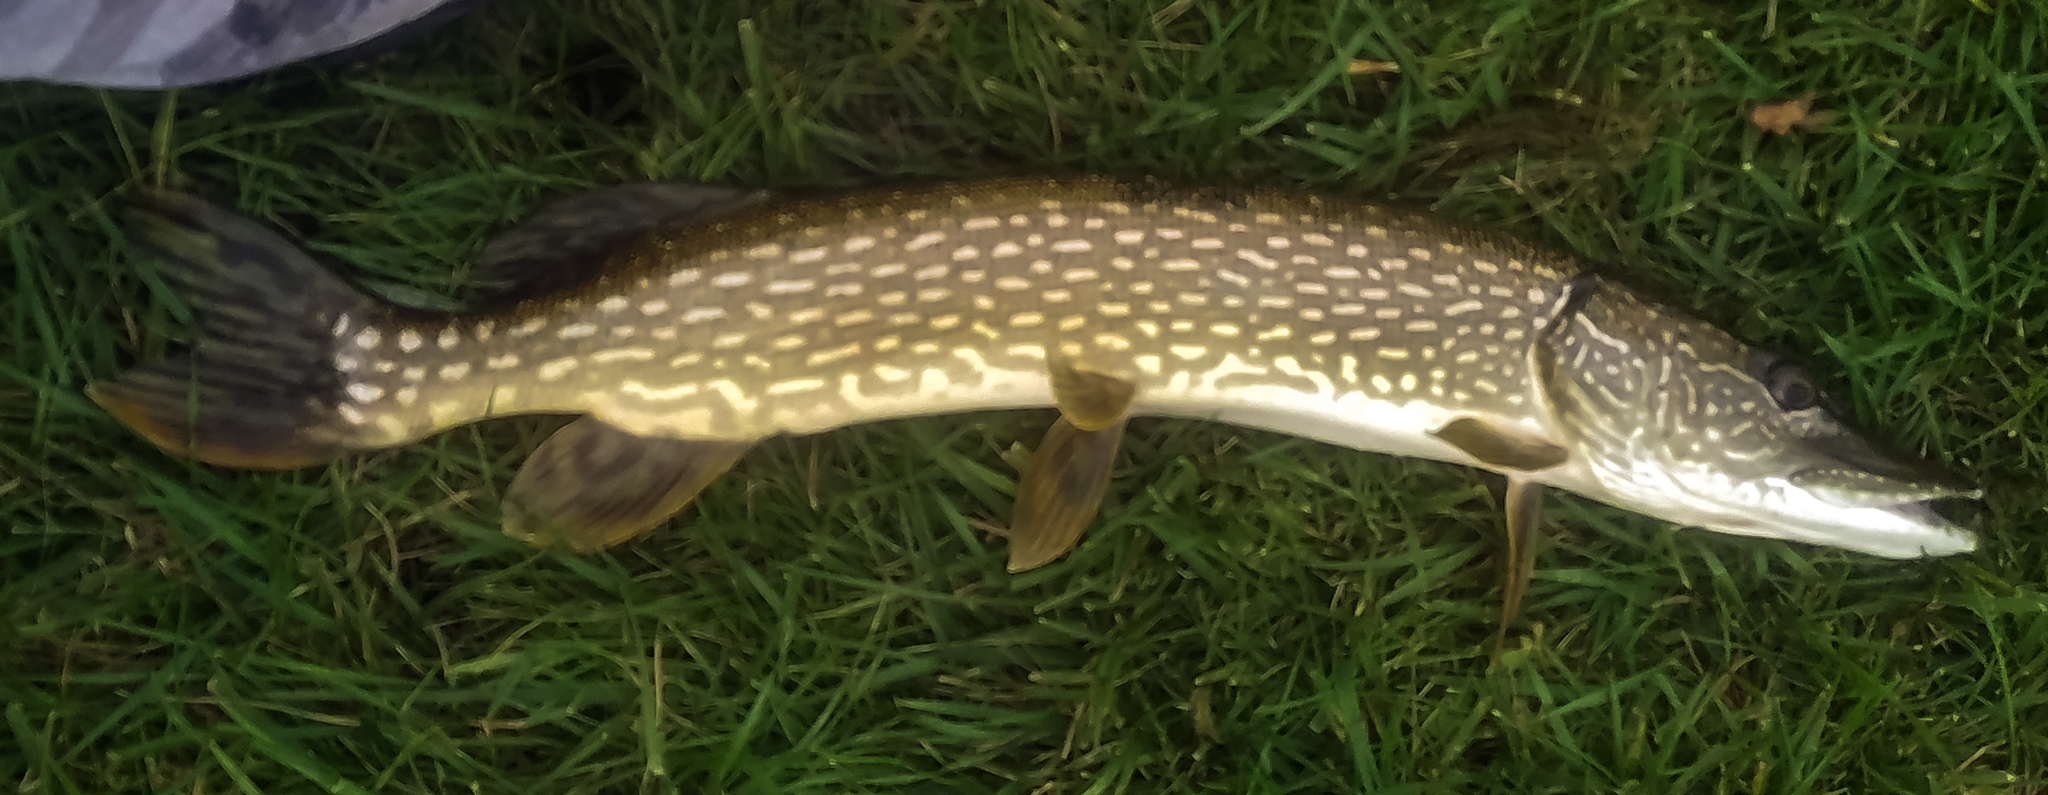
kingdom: Animalia
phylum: Chordata
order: Esociformes
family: Esocidae
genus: Esox
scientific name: Esox lucius
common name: Northern pike
